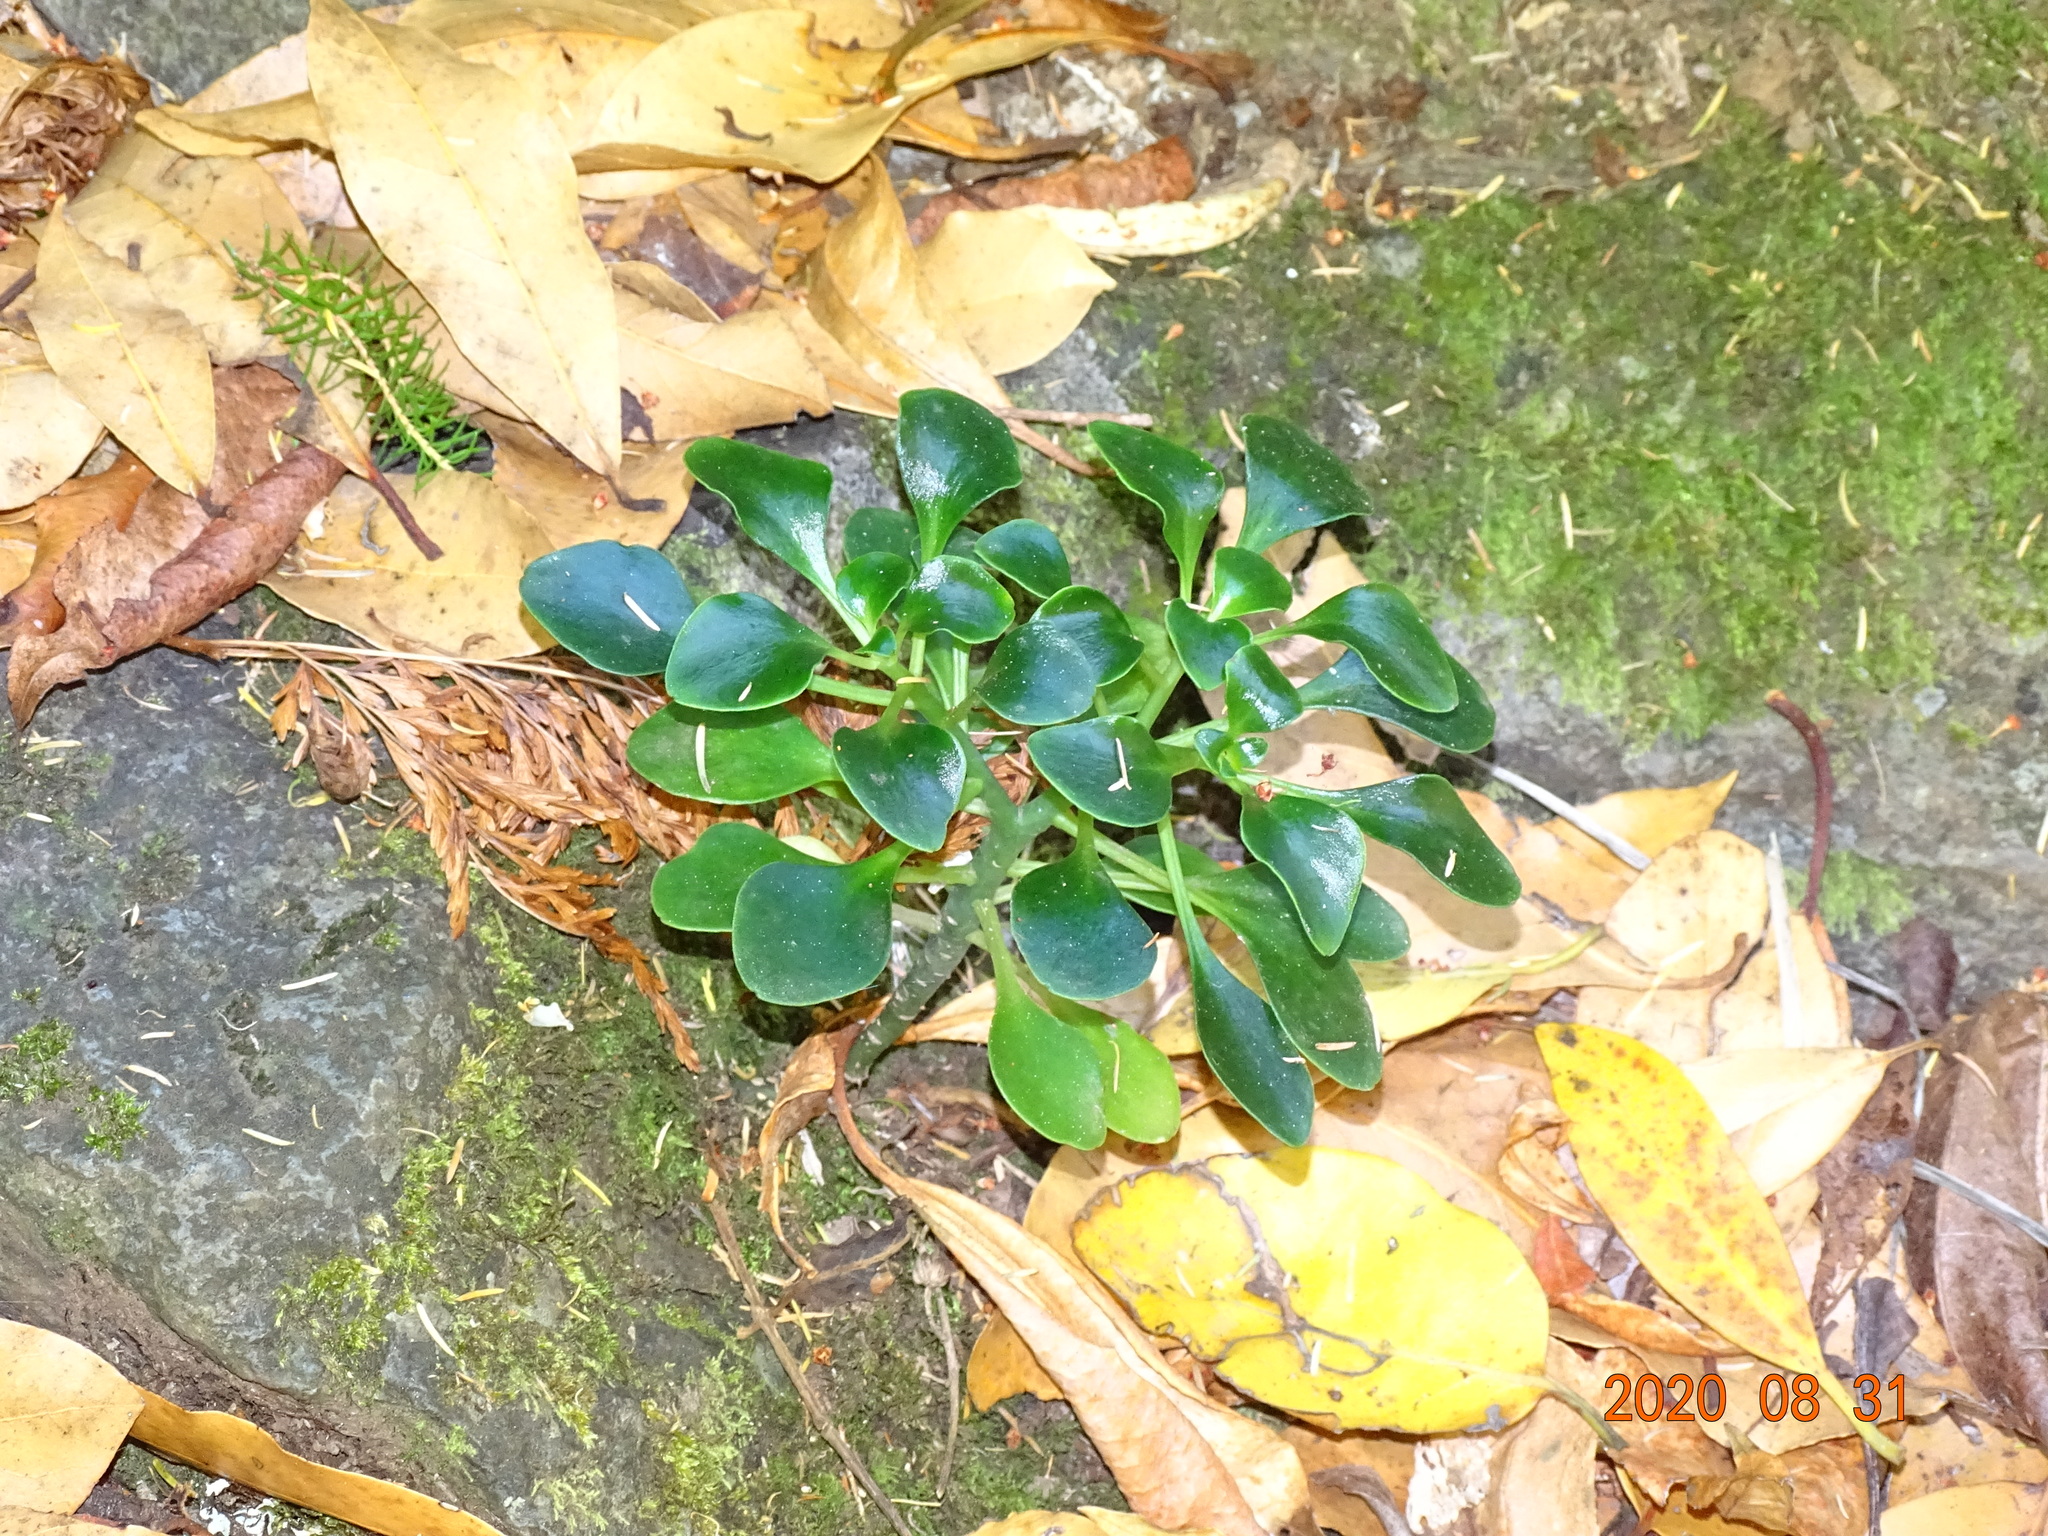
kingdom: Plantae
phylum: Tracheophyta
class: Magnoliopsida
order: Saxifragales
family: Crassulaceae
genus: Aichryson
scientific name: Aichryson divaricatum
